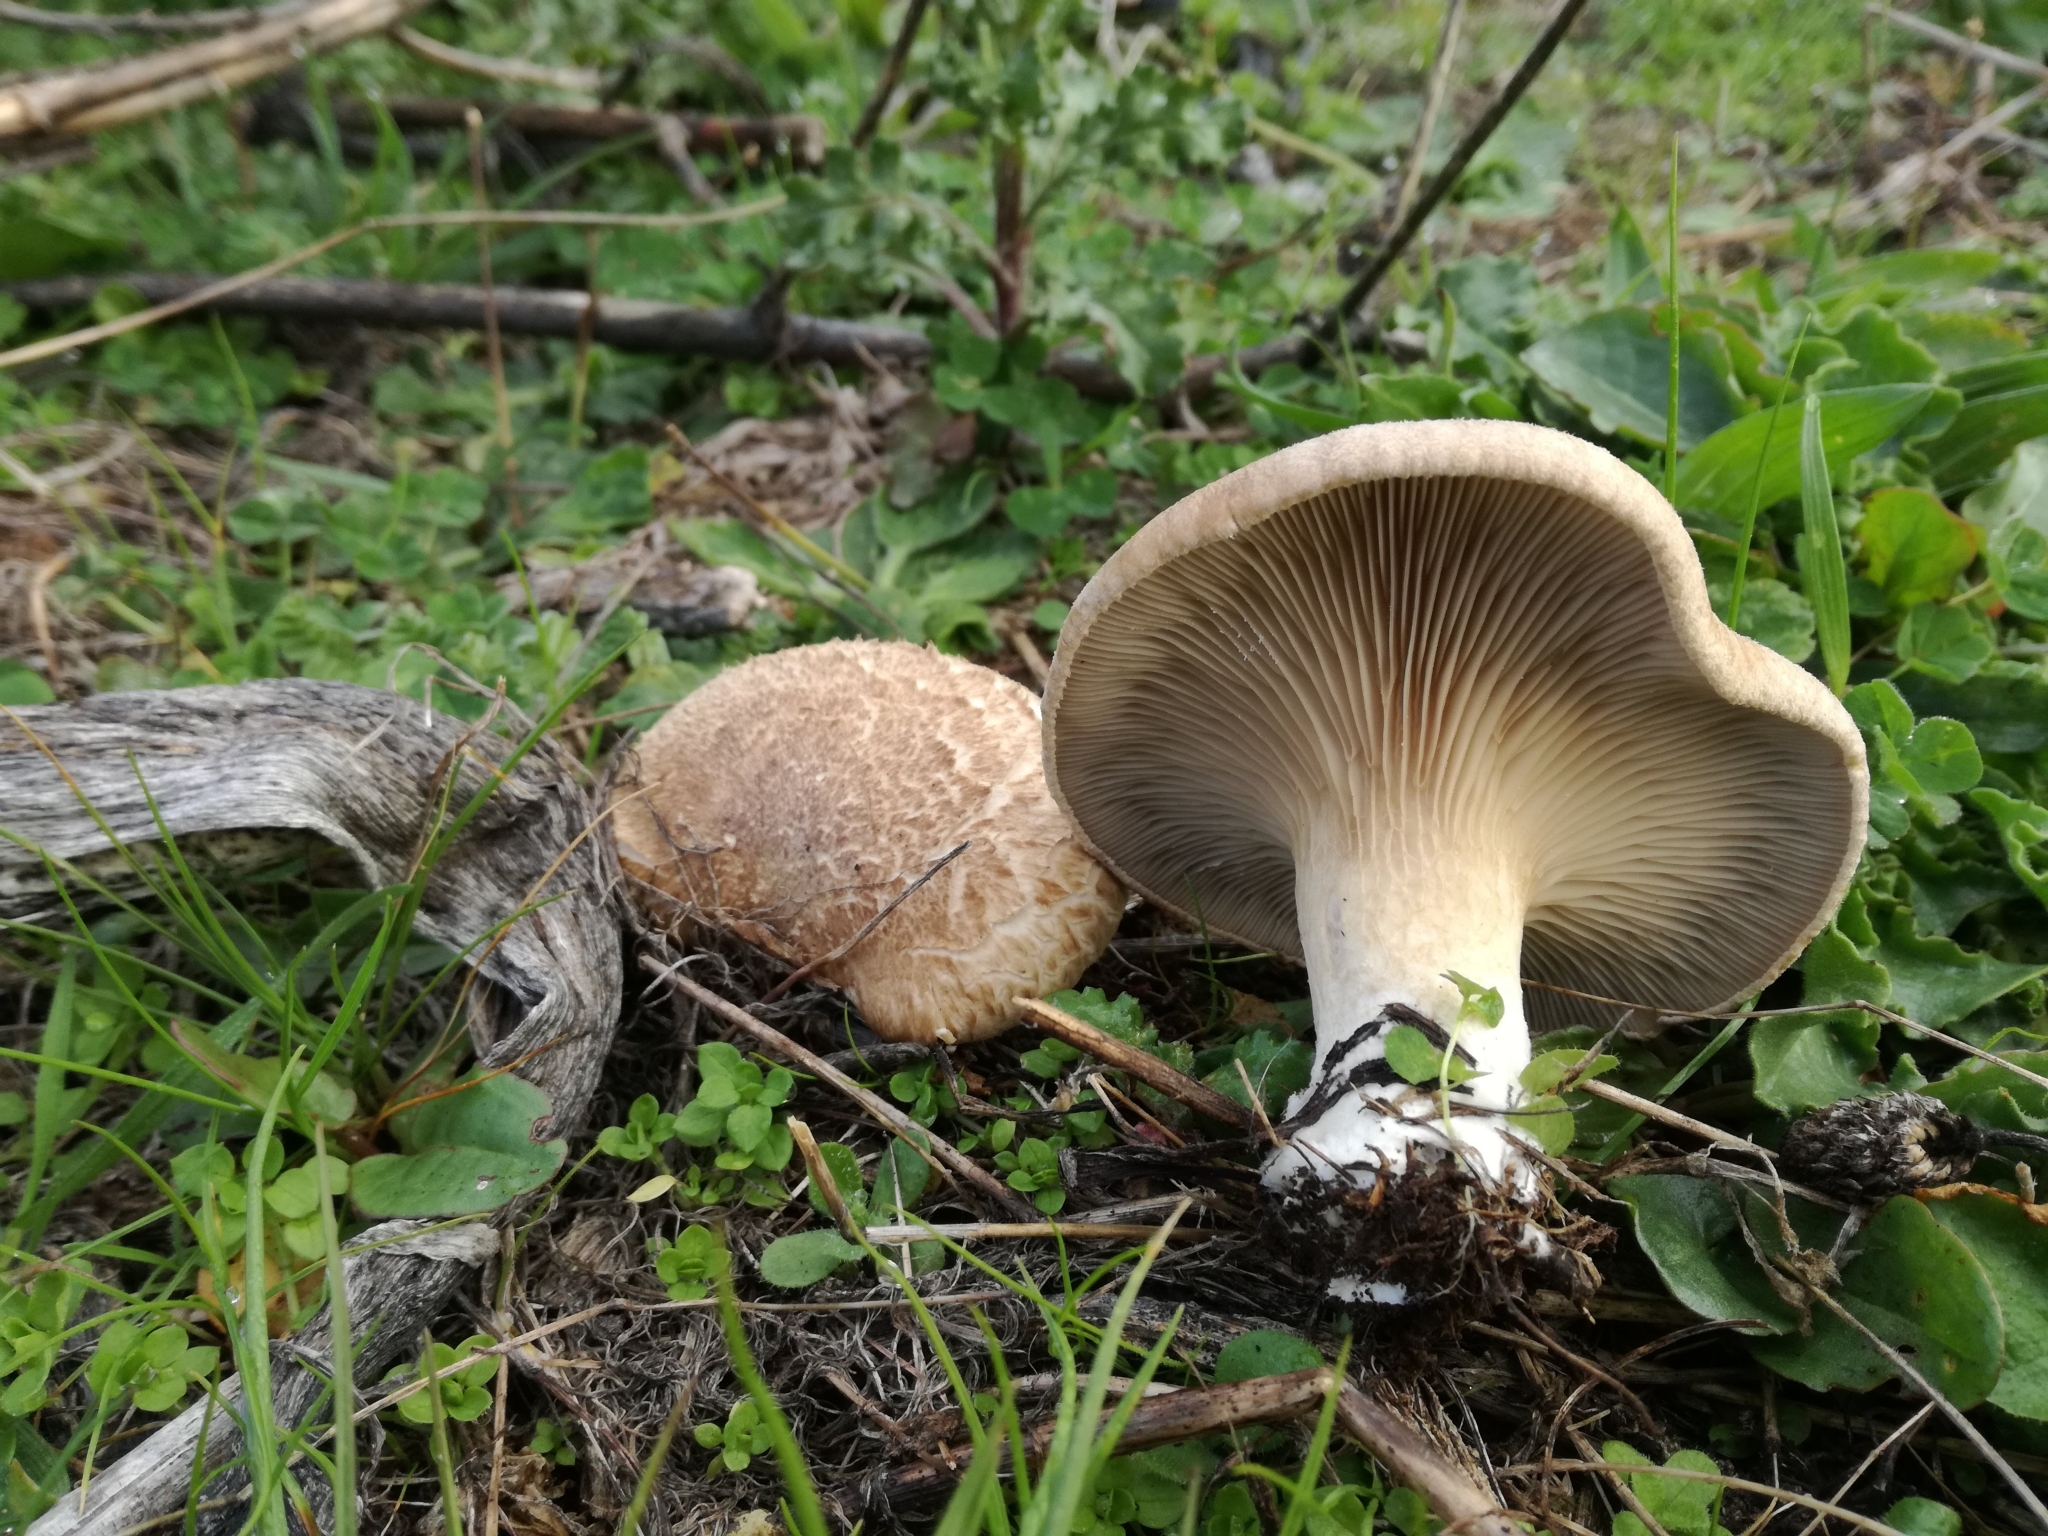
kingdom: Fungi
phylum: Basidiomycota
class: Agaricomycetes
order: Agaricales
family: Pleurotaceae
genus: Pleurotus
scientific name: Pleurotus eryngii
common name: King oyster
